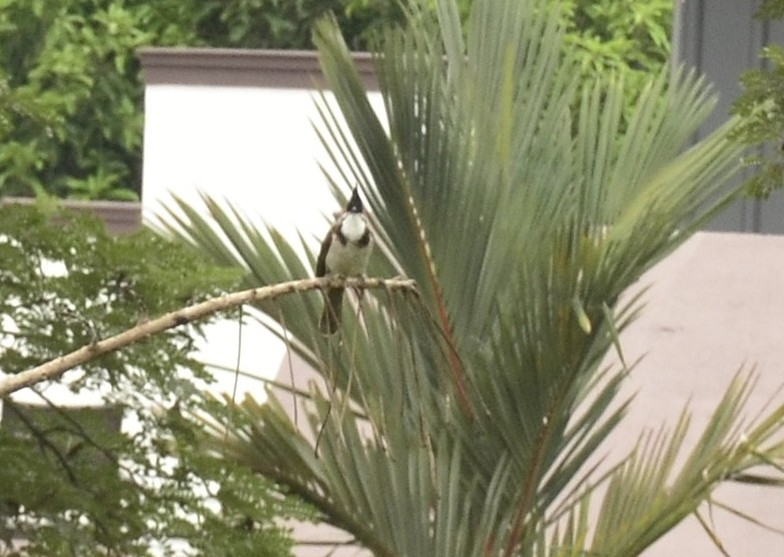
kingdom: Animalia
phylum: Chordata
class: Aves
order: Passeriformes
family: Pycnonotidae
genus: Pycnonotus
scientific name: Pycnonotus jocosus
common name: Red-whiskered bulbul
